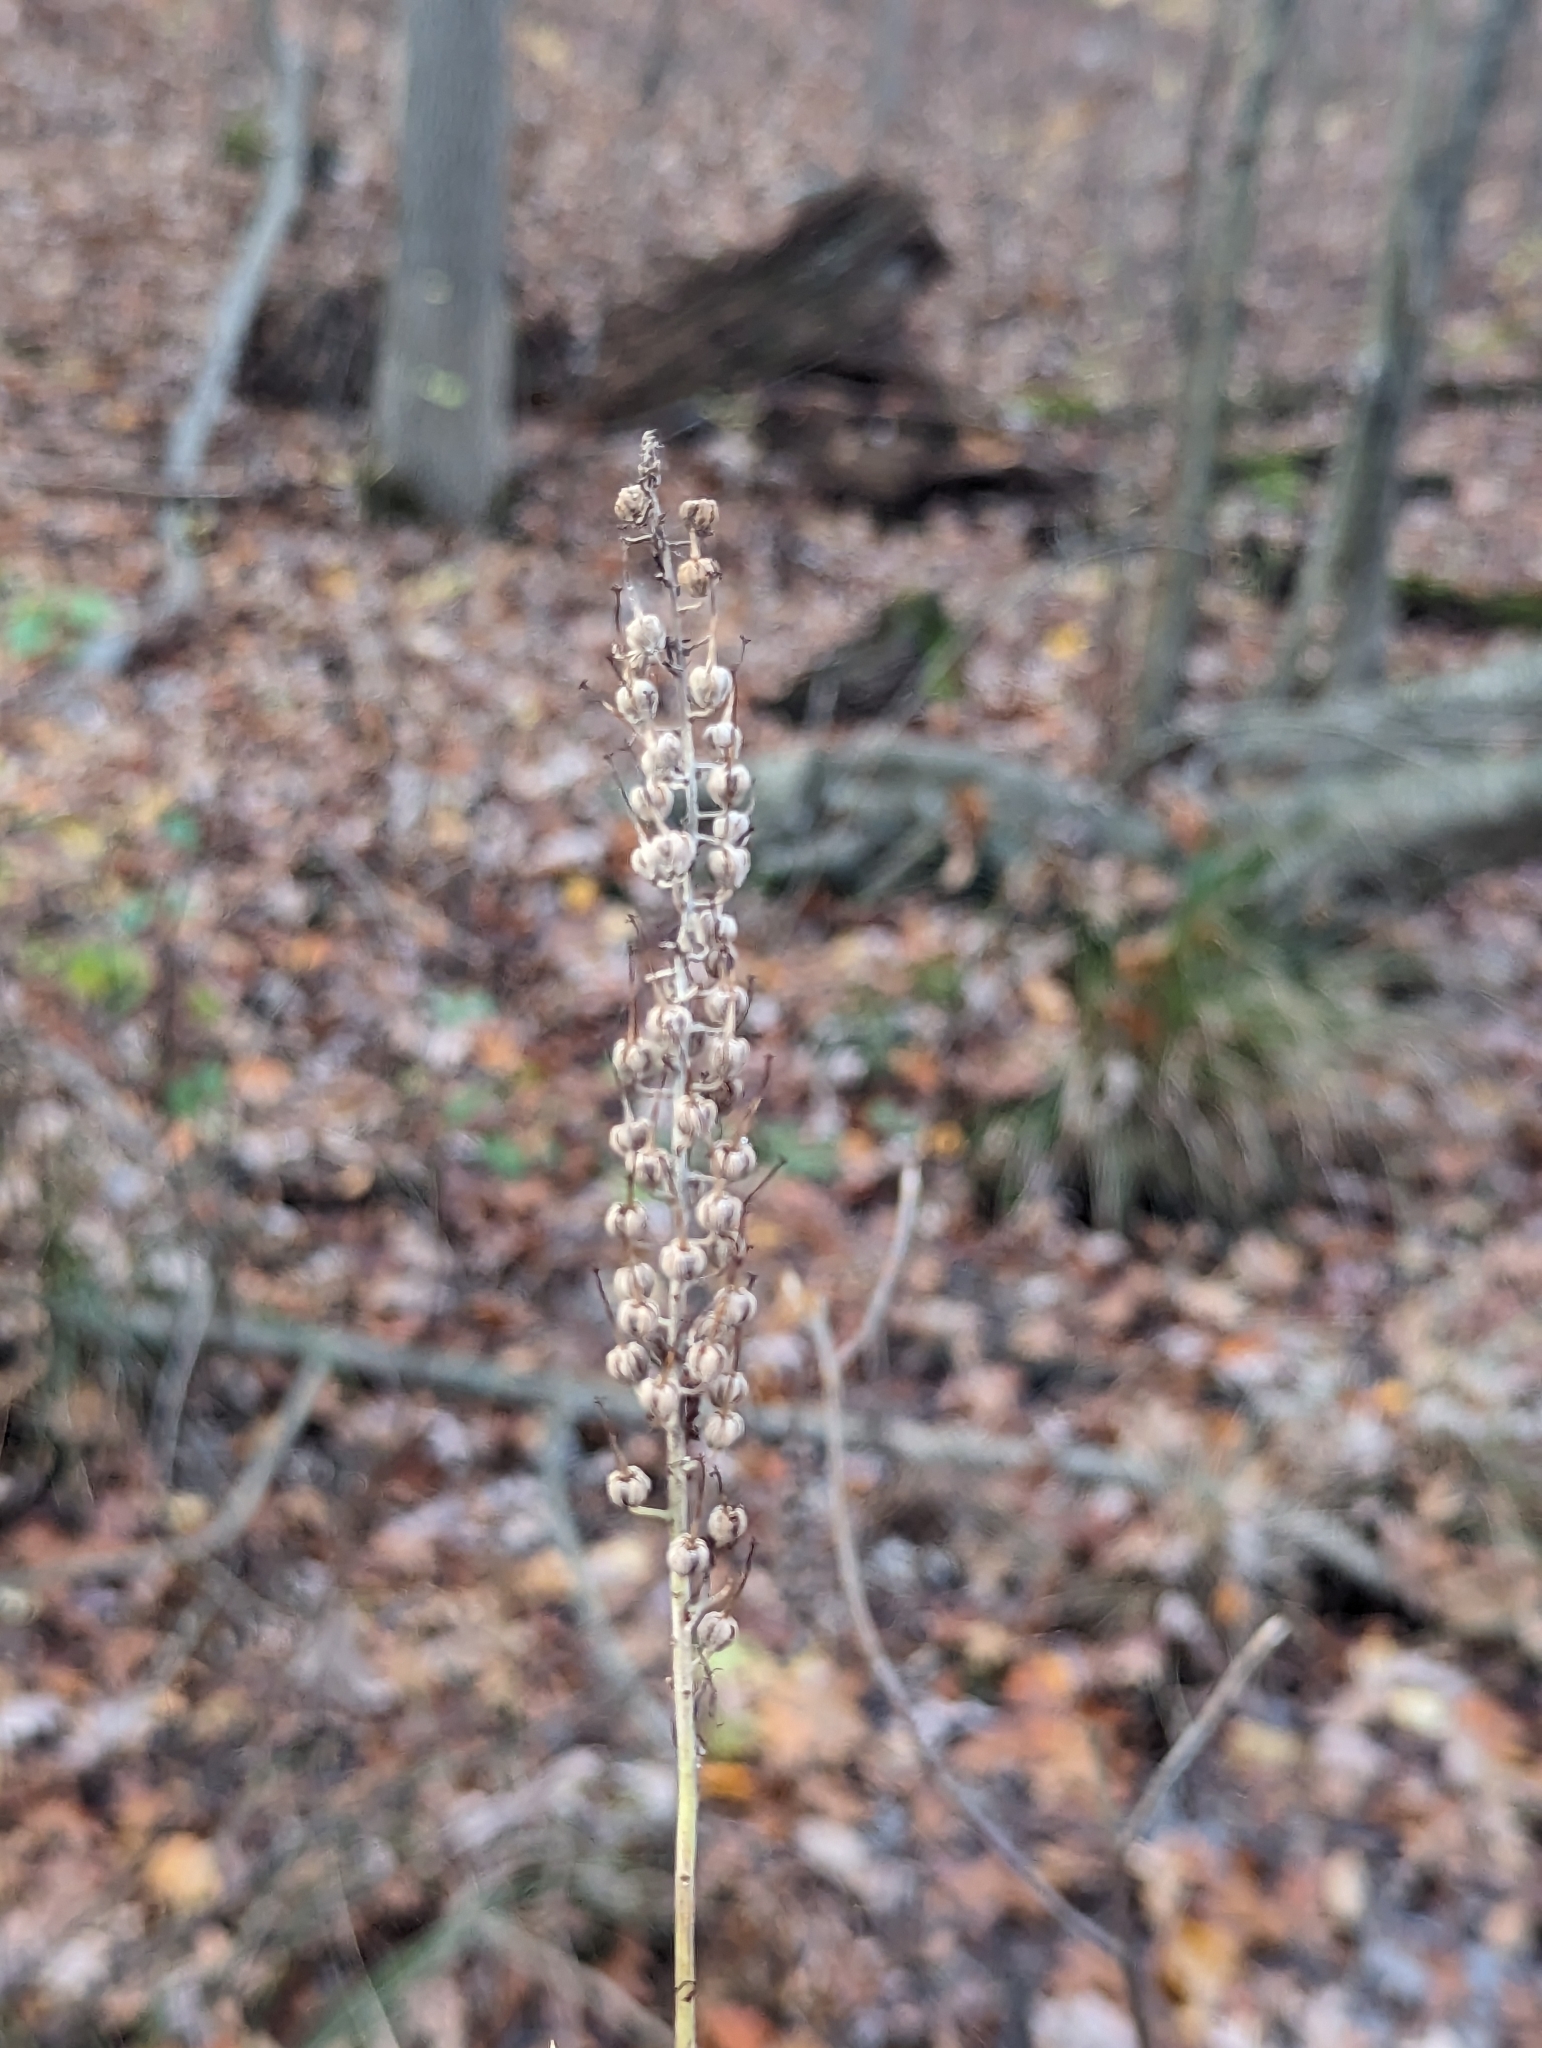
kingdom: Plantae
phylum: Tracheophyta
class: Magnoliopsida
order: Ericales
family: Clethraceae
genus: Clethra
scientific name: Clethra alnifolia
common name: Sweet pepperbush
